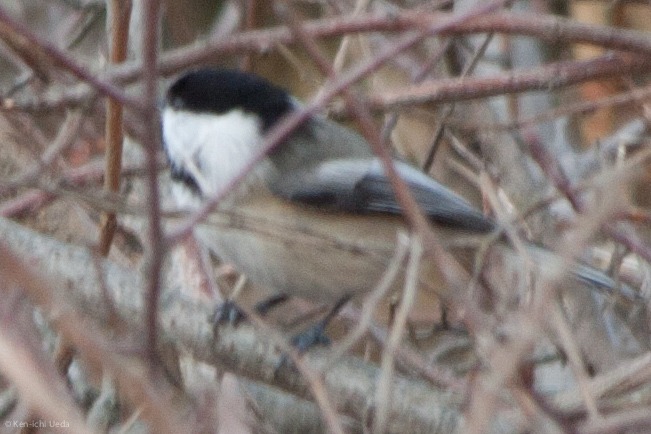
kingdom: Animalia
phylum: Chordata
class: Aves
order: Passeriformes
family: Paridae
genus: Poecile
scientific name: Poecile atricapillus
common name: Black-capped chickadee
